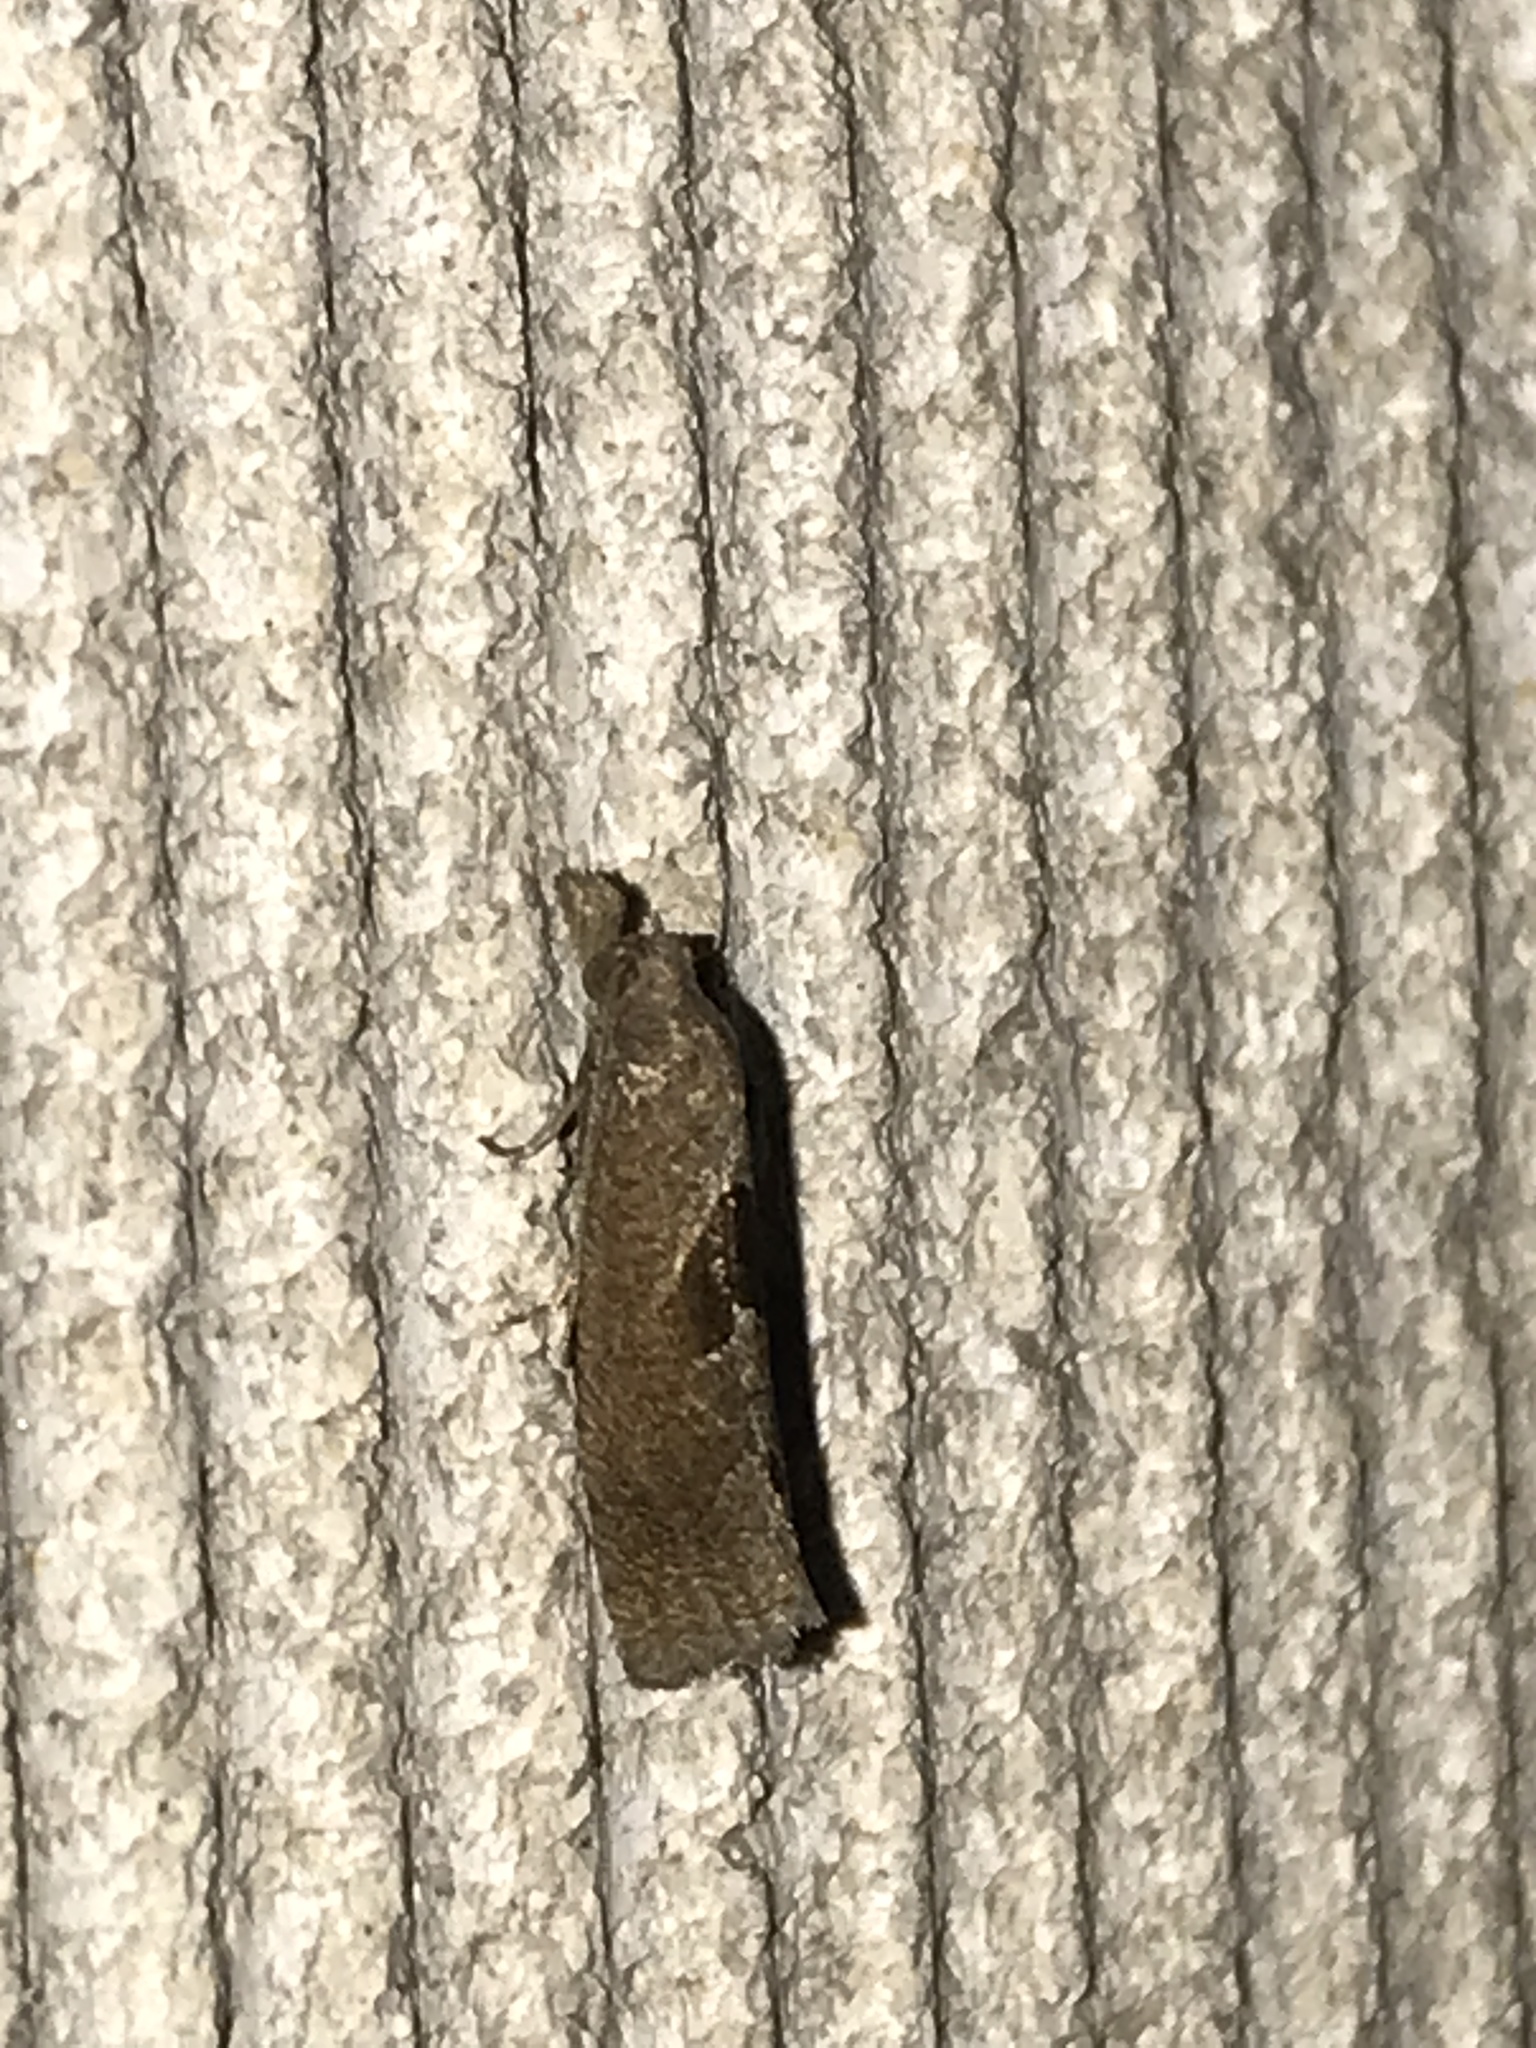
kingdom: Animalia
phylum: Arthropoda
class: Insecta
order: Lepidoptera
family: Tortricidae
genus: Pelochrista
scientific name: Pelochrista similiana
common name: Similar eucosma
